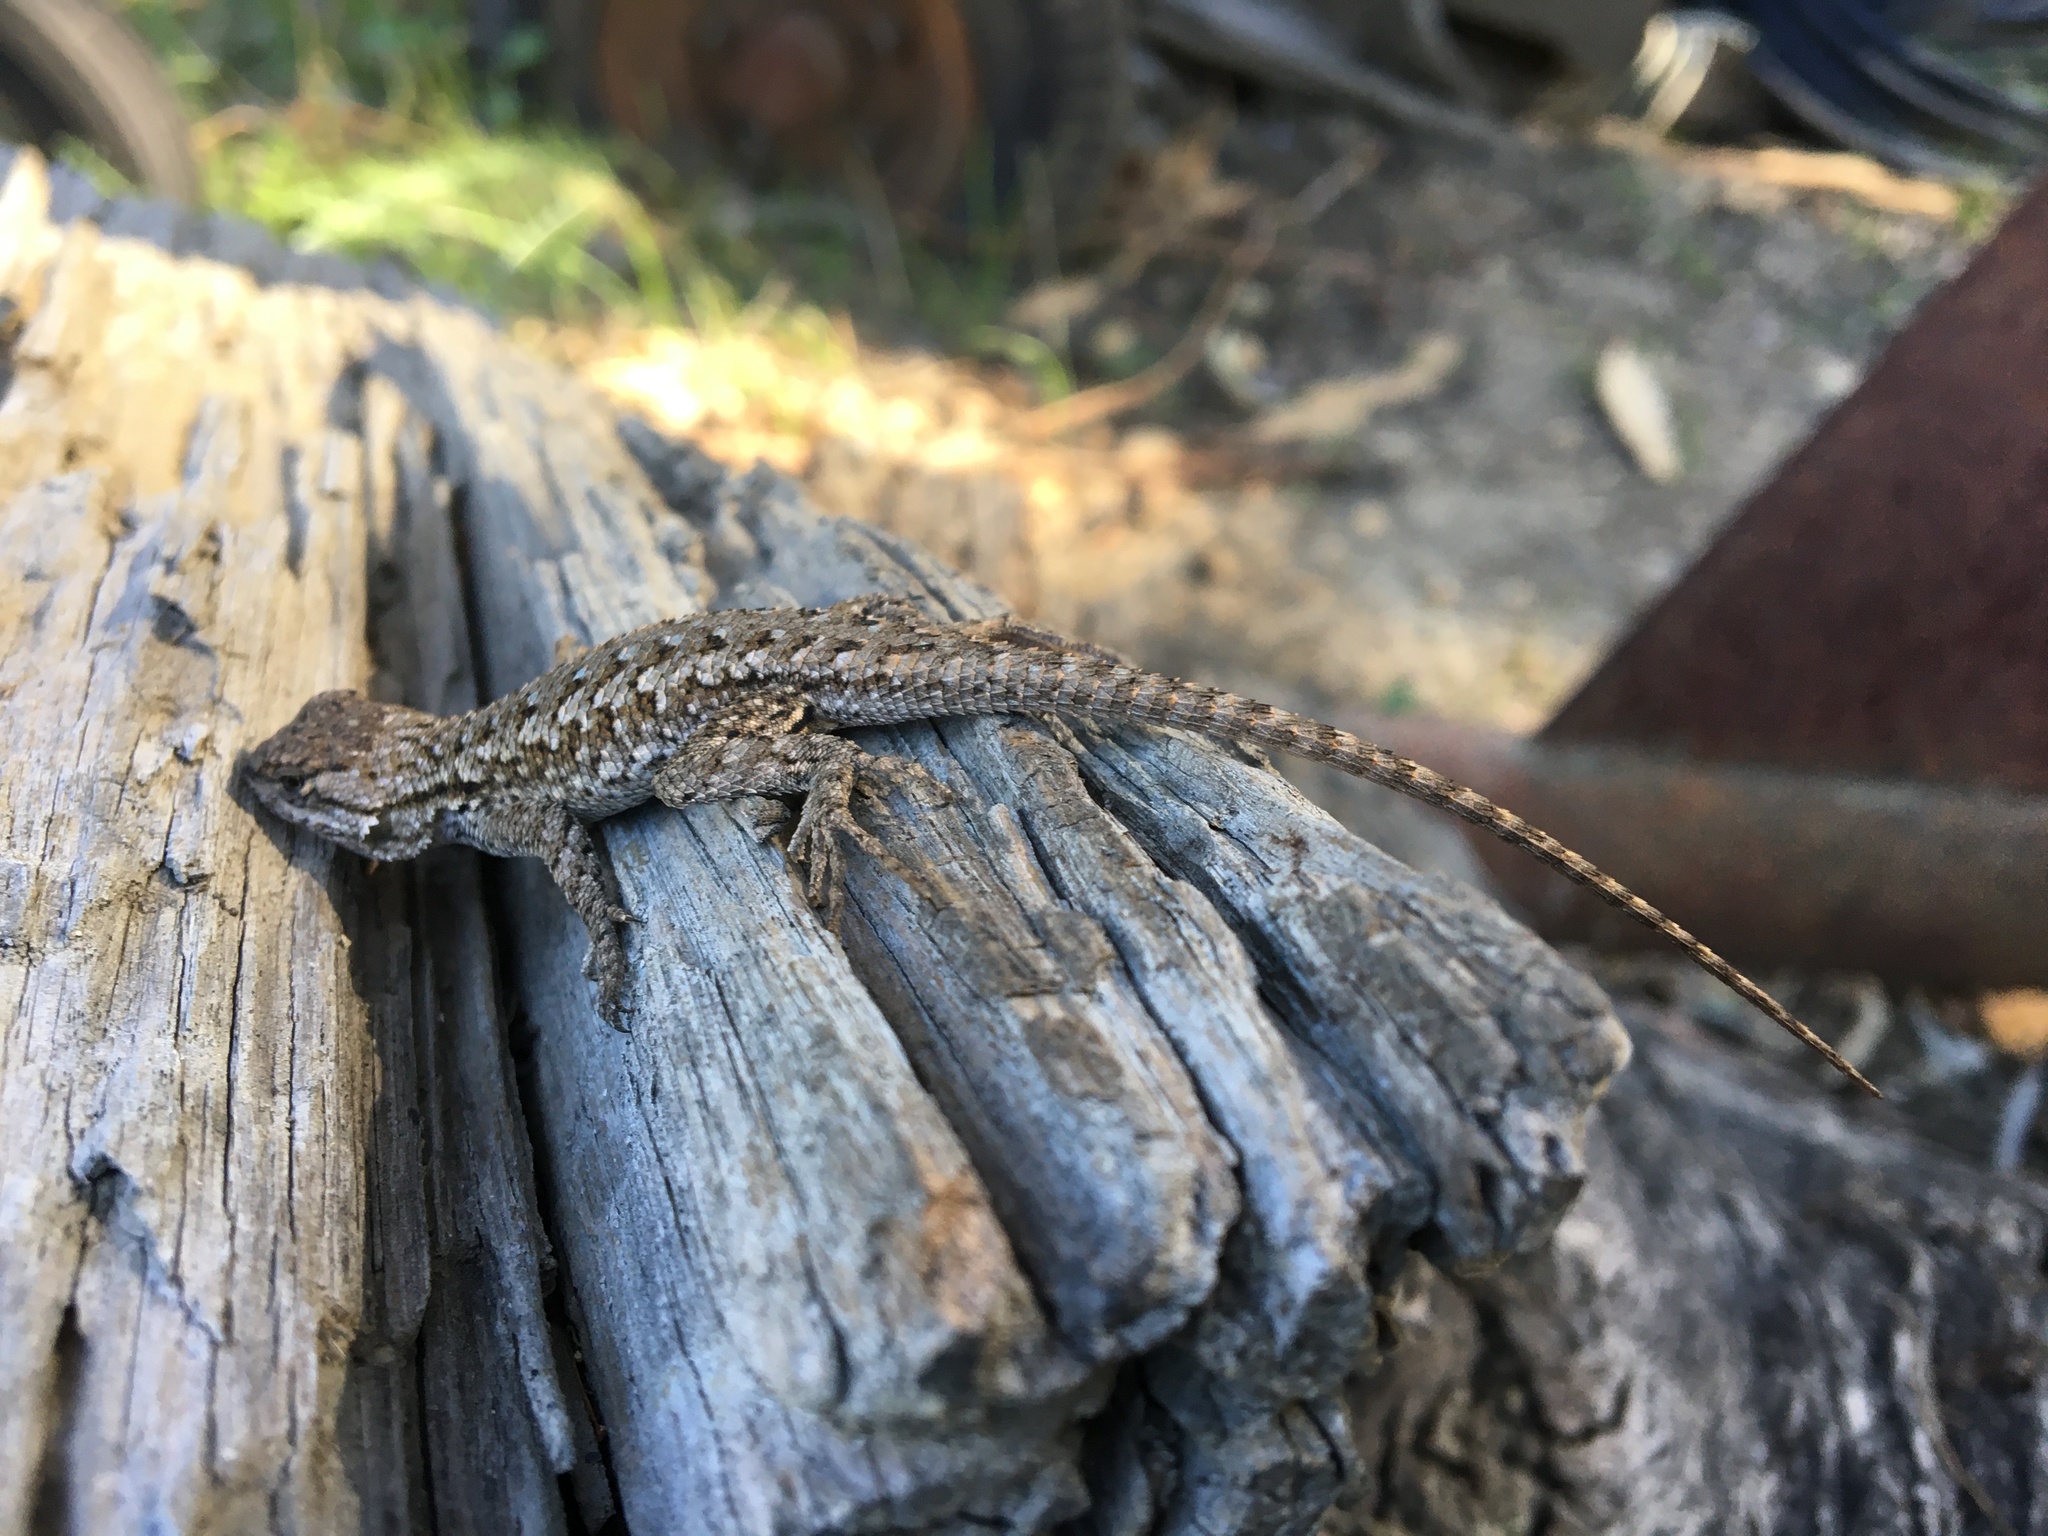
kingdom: Animalia
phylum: Chordata
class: Squamata
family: Phrynosomatidae
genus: Sceloporus
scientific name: Sceloporus occidentalis
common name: Western fence lizard
